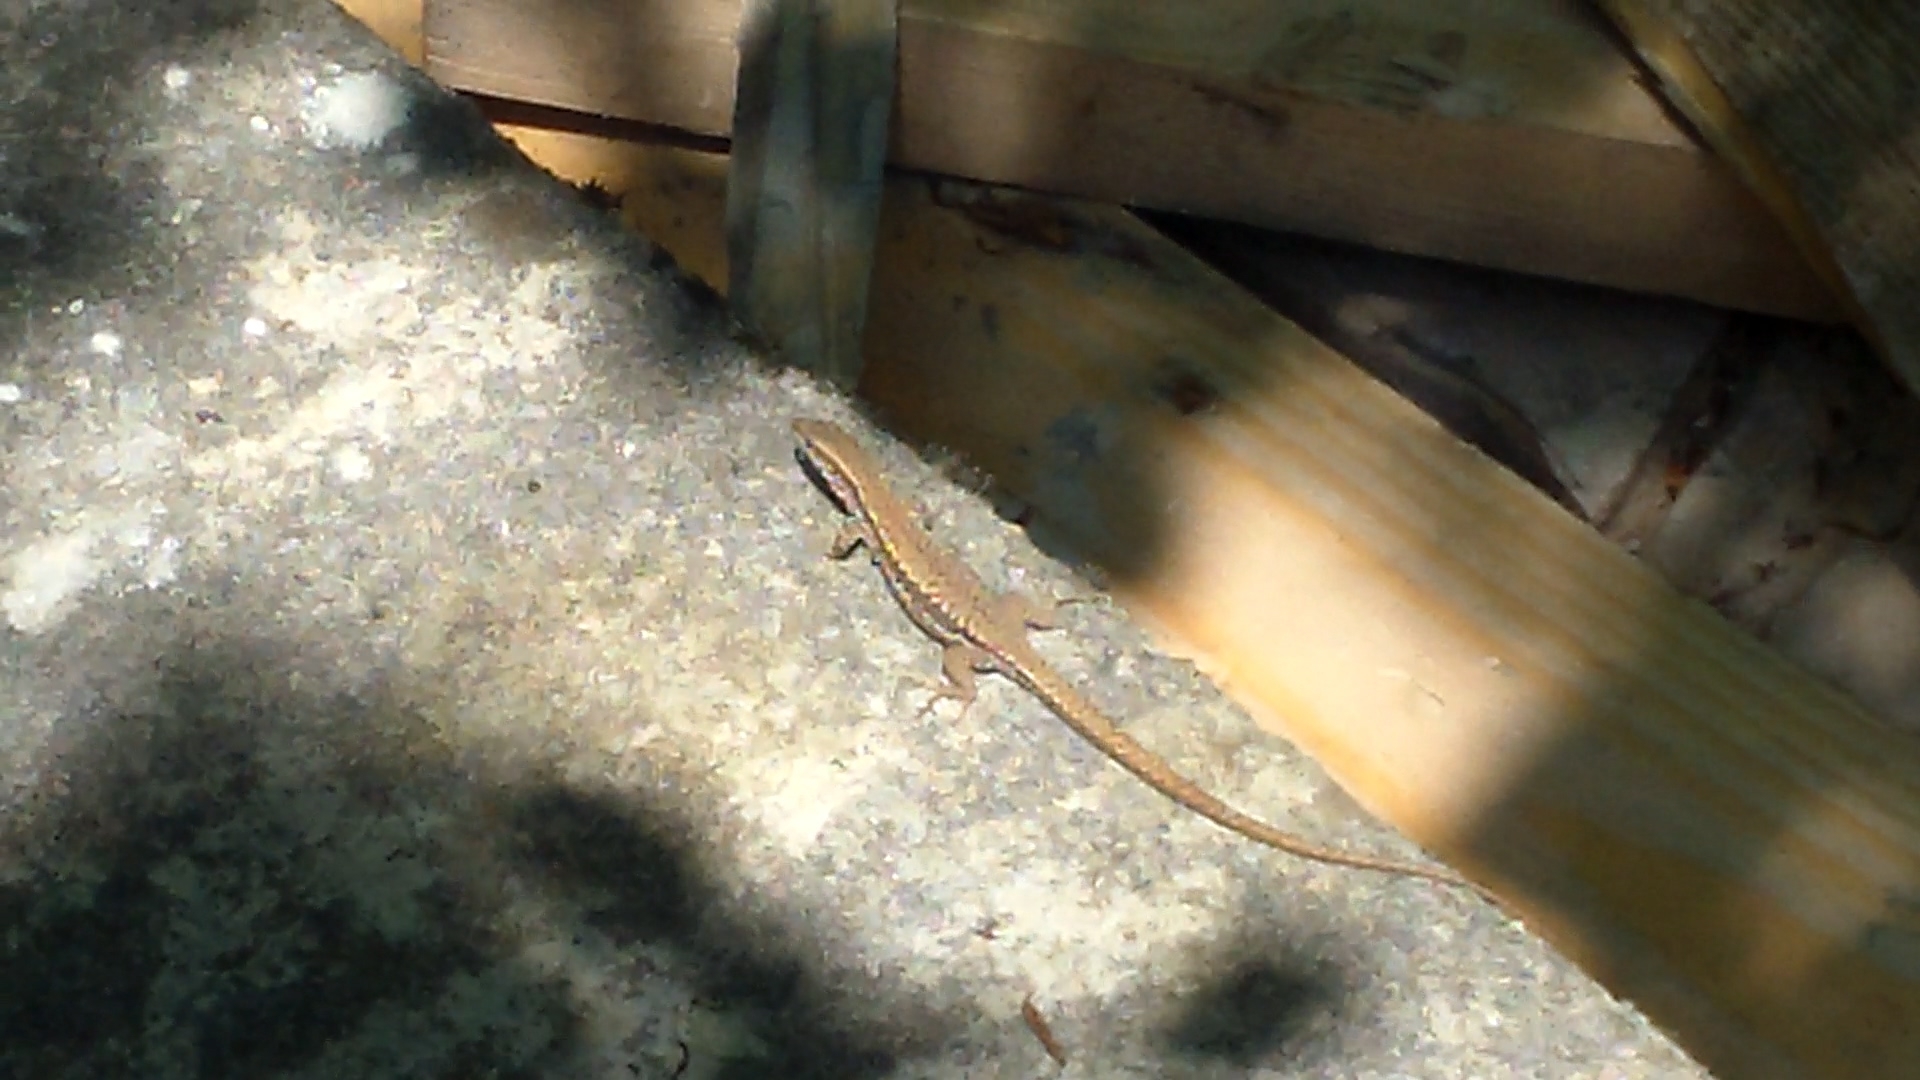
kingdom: Animalia
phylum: Chordata
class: Squamata
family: Lacertidae
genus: Podarcis
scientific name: Podarcis muralis
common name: Common wall lizard
